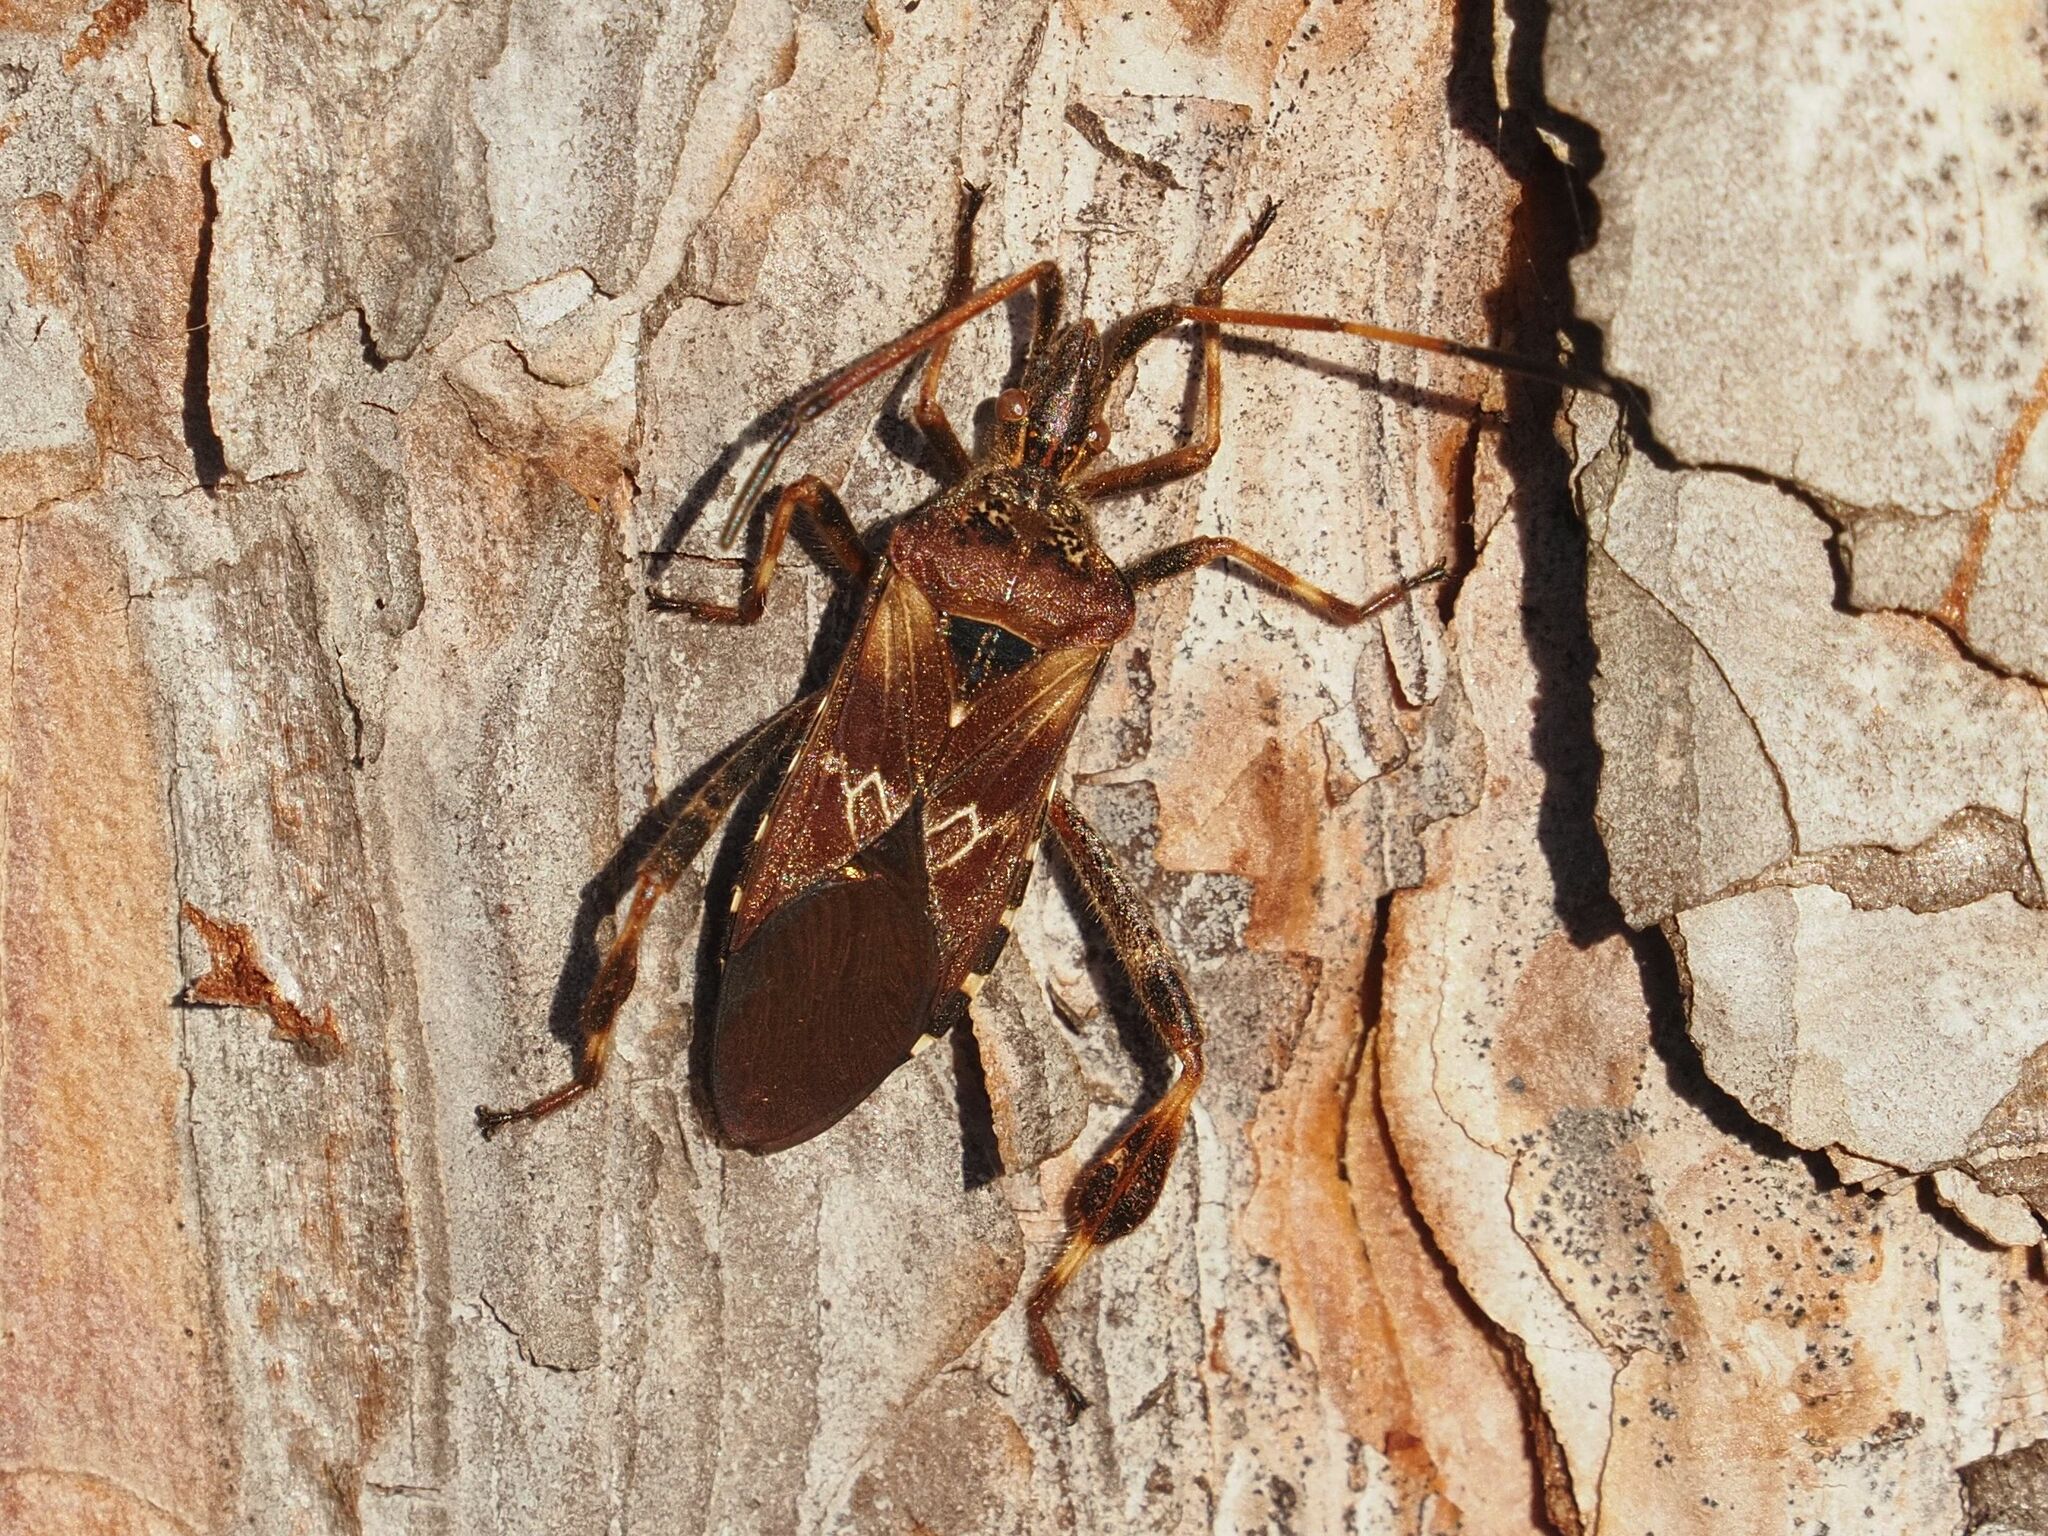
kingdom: Animalia
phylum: Arthropoda
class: Insecta
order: Hemiptera
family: Coreidae
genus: Leptoglossus
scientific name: Leptoglossus occidentalis
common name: Western conifer-seed bug
